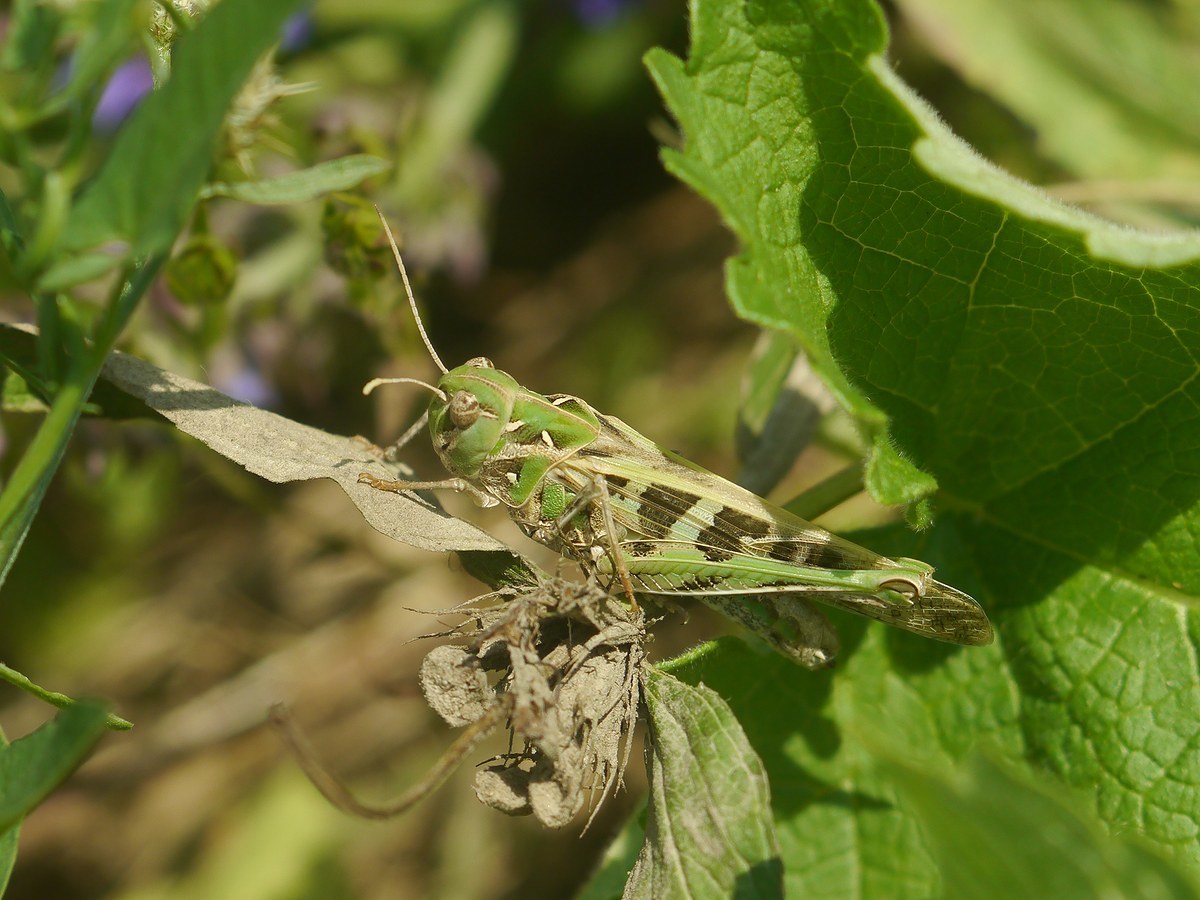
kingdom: Animalia
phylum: Arthropoda
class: Insecta
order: Orthoptera
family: Acrididae
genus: Oedaleus
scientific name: Oedaleus decorus
